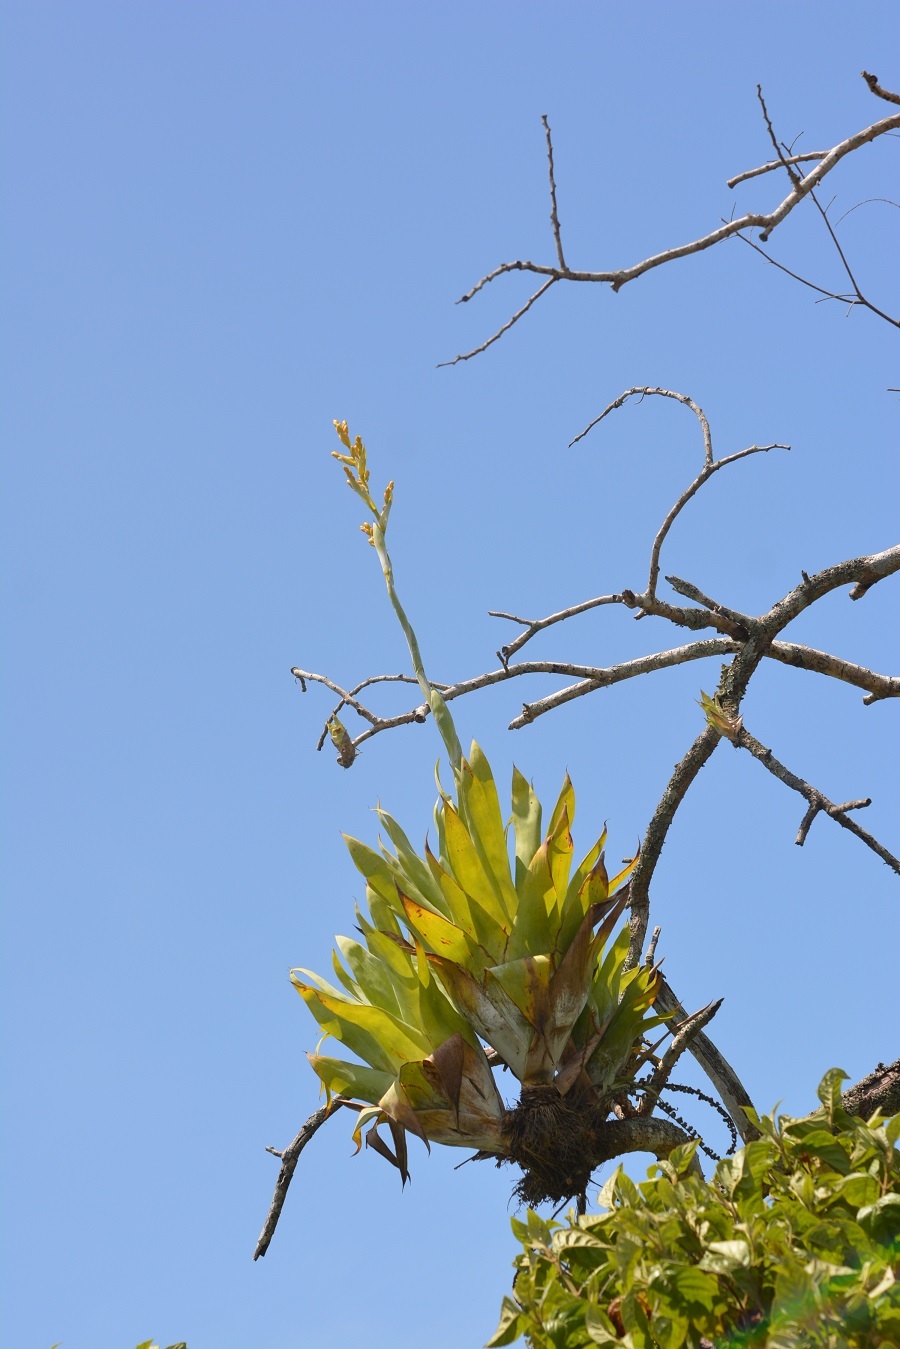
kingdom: Plantae
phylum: Tracheophyta
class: Liliopsida
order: Poales
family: Bromeliaceae
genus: Catopsis
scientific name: Catopsis occulta
